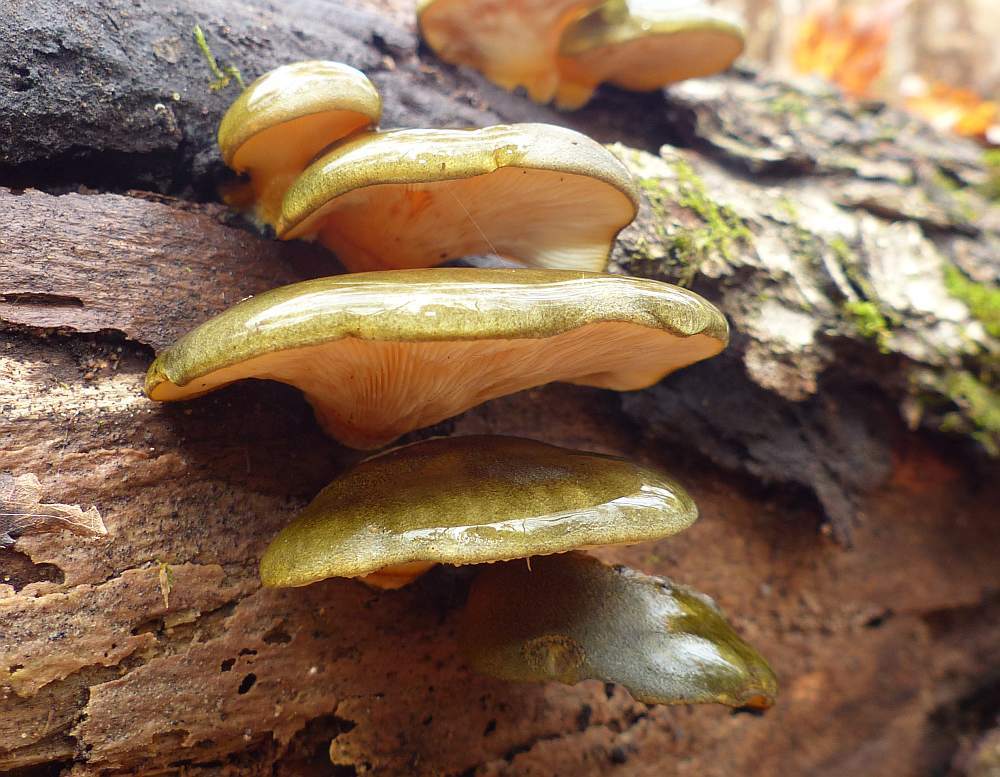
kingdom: Fungi
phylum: Basidiomycota
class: Agaricomycetes
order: Agaricales
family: Sarcomyxaceae
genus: Sarcomyxa
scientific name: Sarcomyxa serotina
